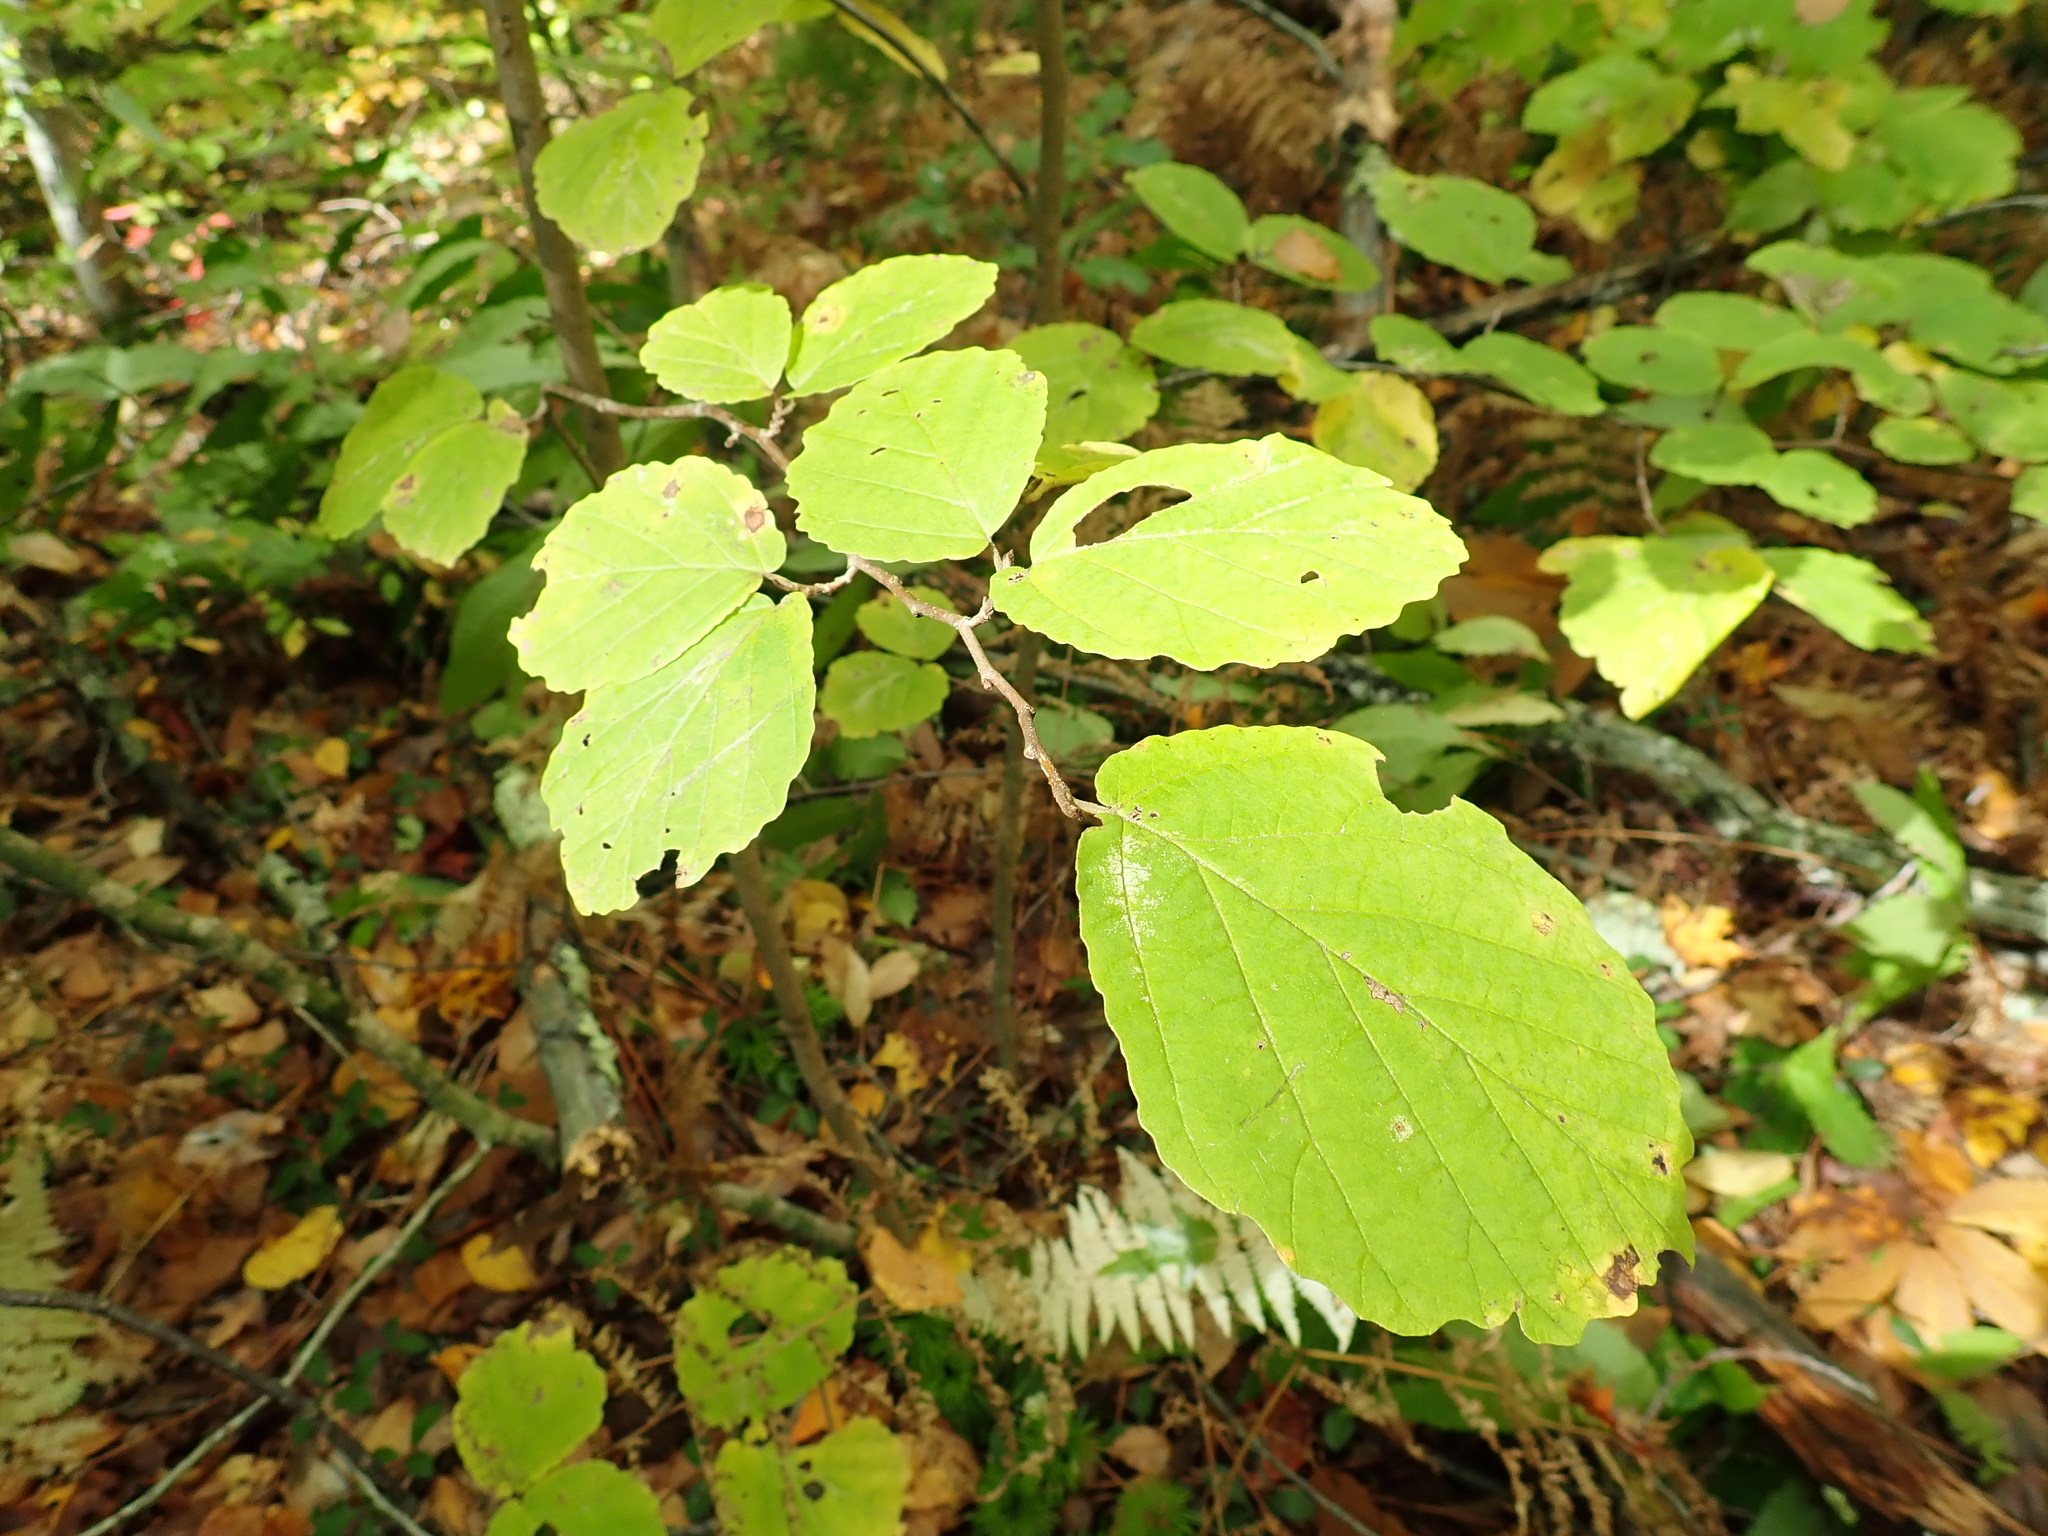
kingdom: Plantae
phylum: Tracheophyta
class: Magnoliopsida
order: Saxifragales
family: Hamamelidaceae
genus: Hamamelis
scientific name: Hamamelis virginiana
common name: Witch-hazel
